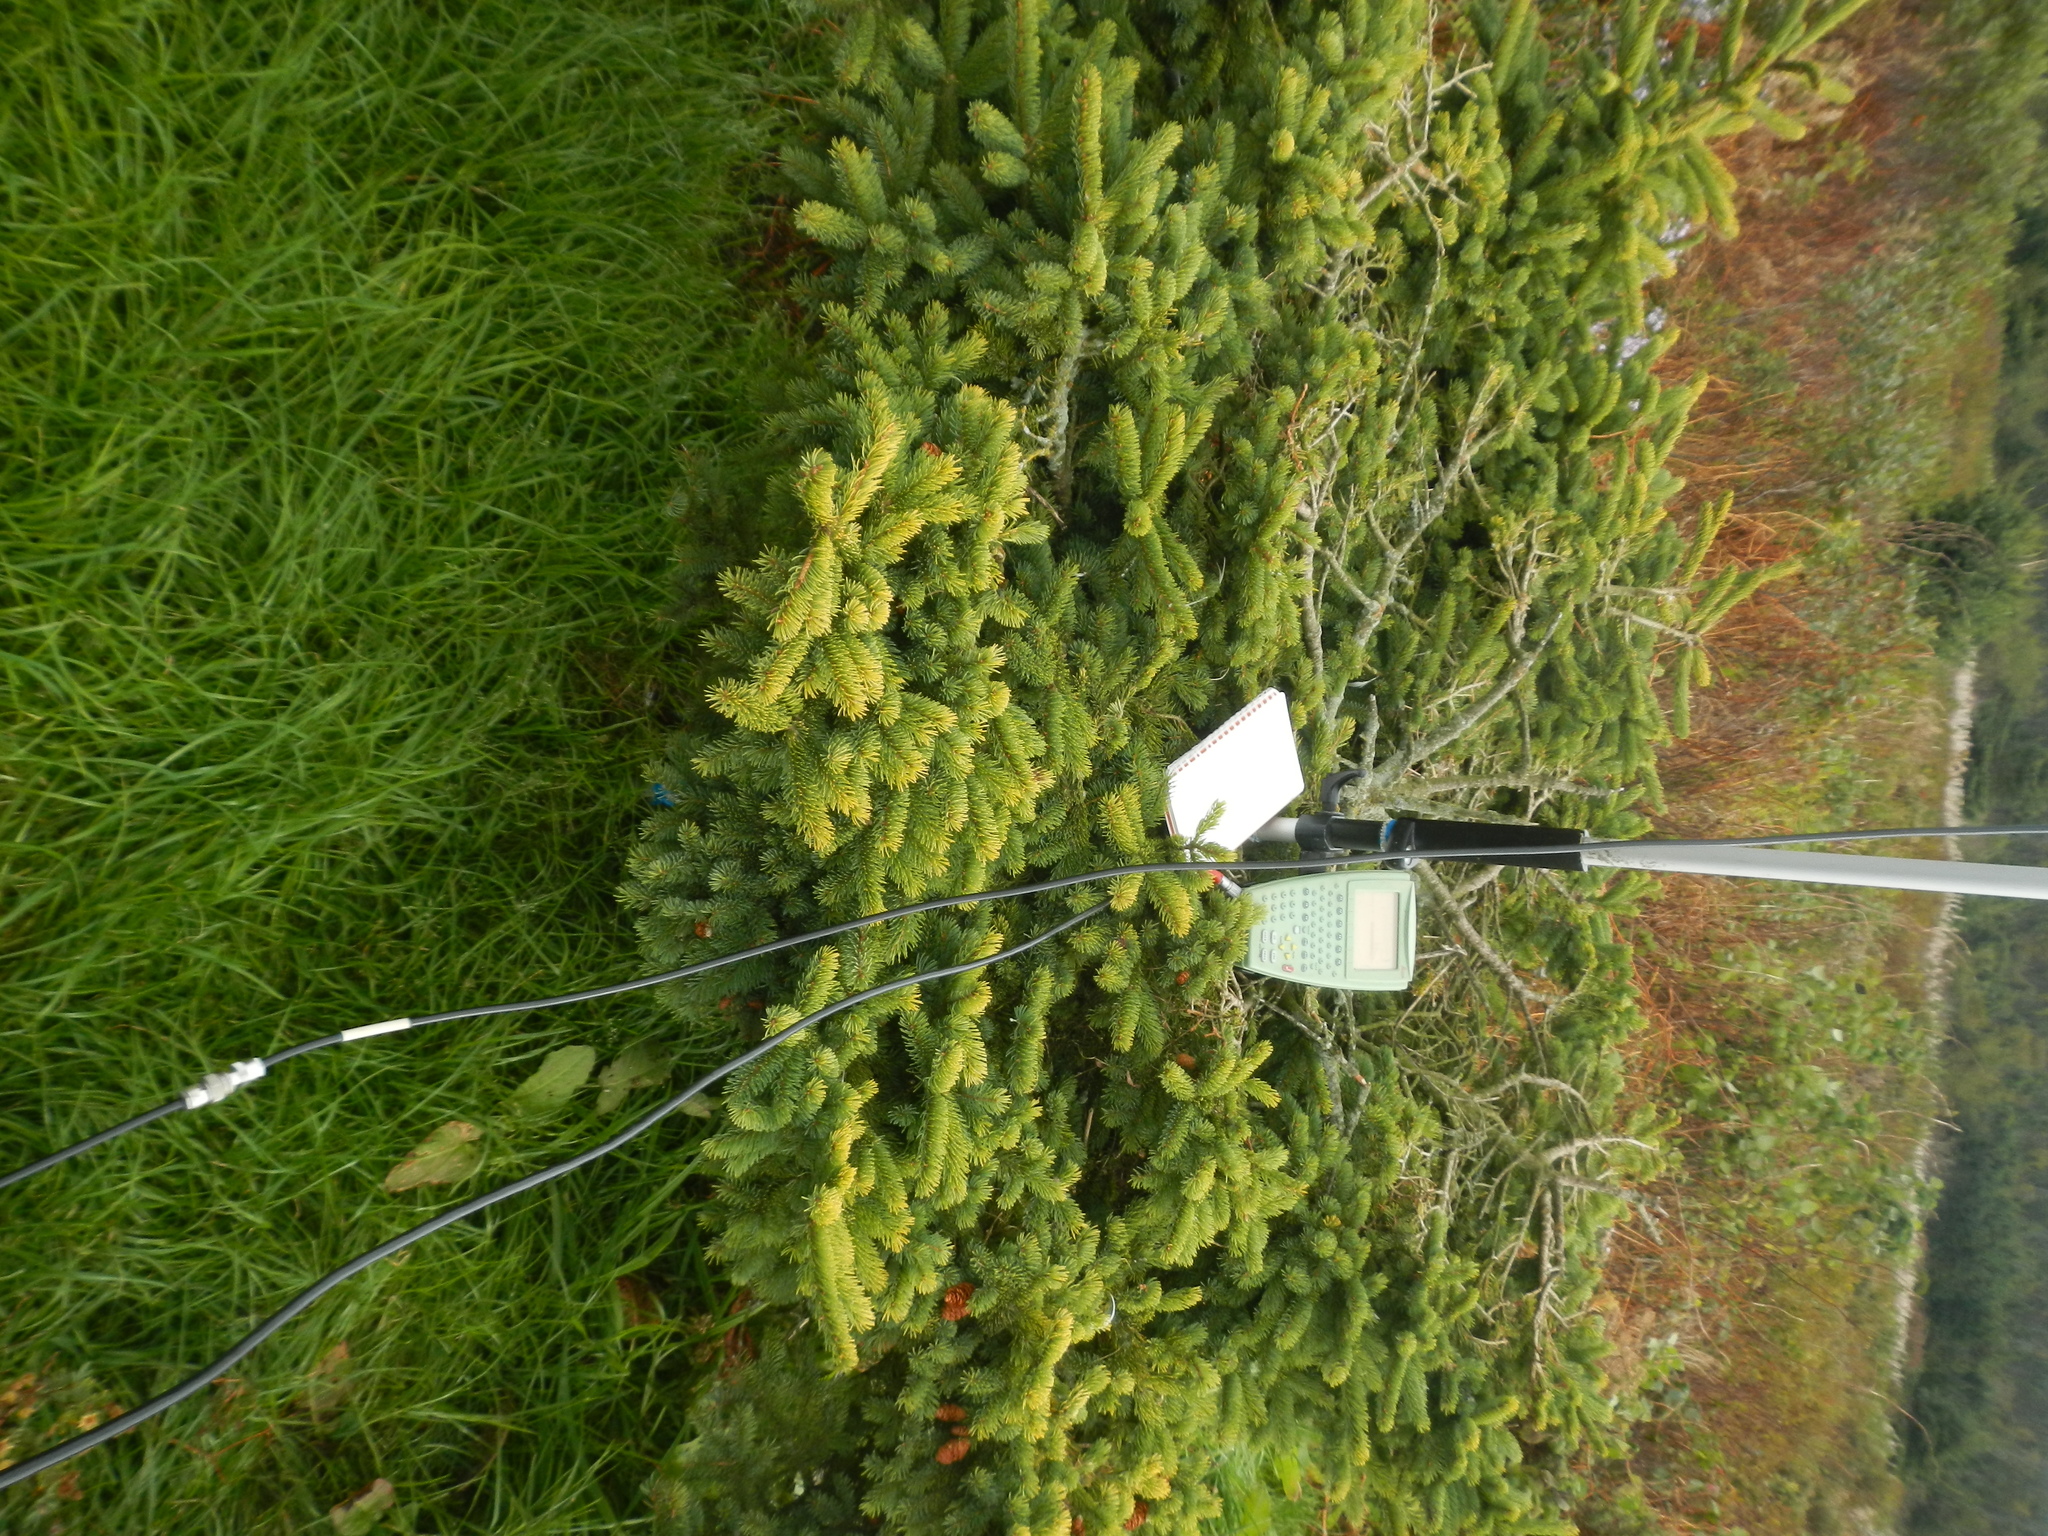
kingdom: Plantae
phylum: Tracheophyta
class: Pinopsida
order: Pinales
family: Pinaceae
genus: Picea
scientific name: Picea glauca
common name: White spruce
